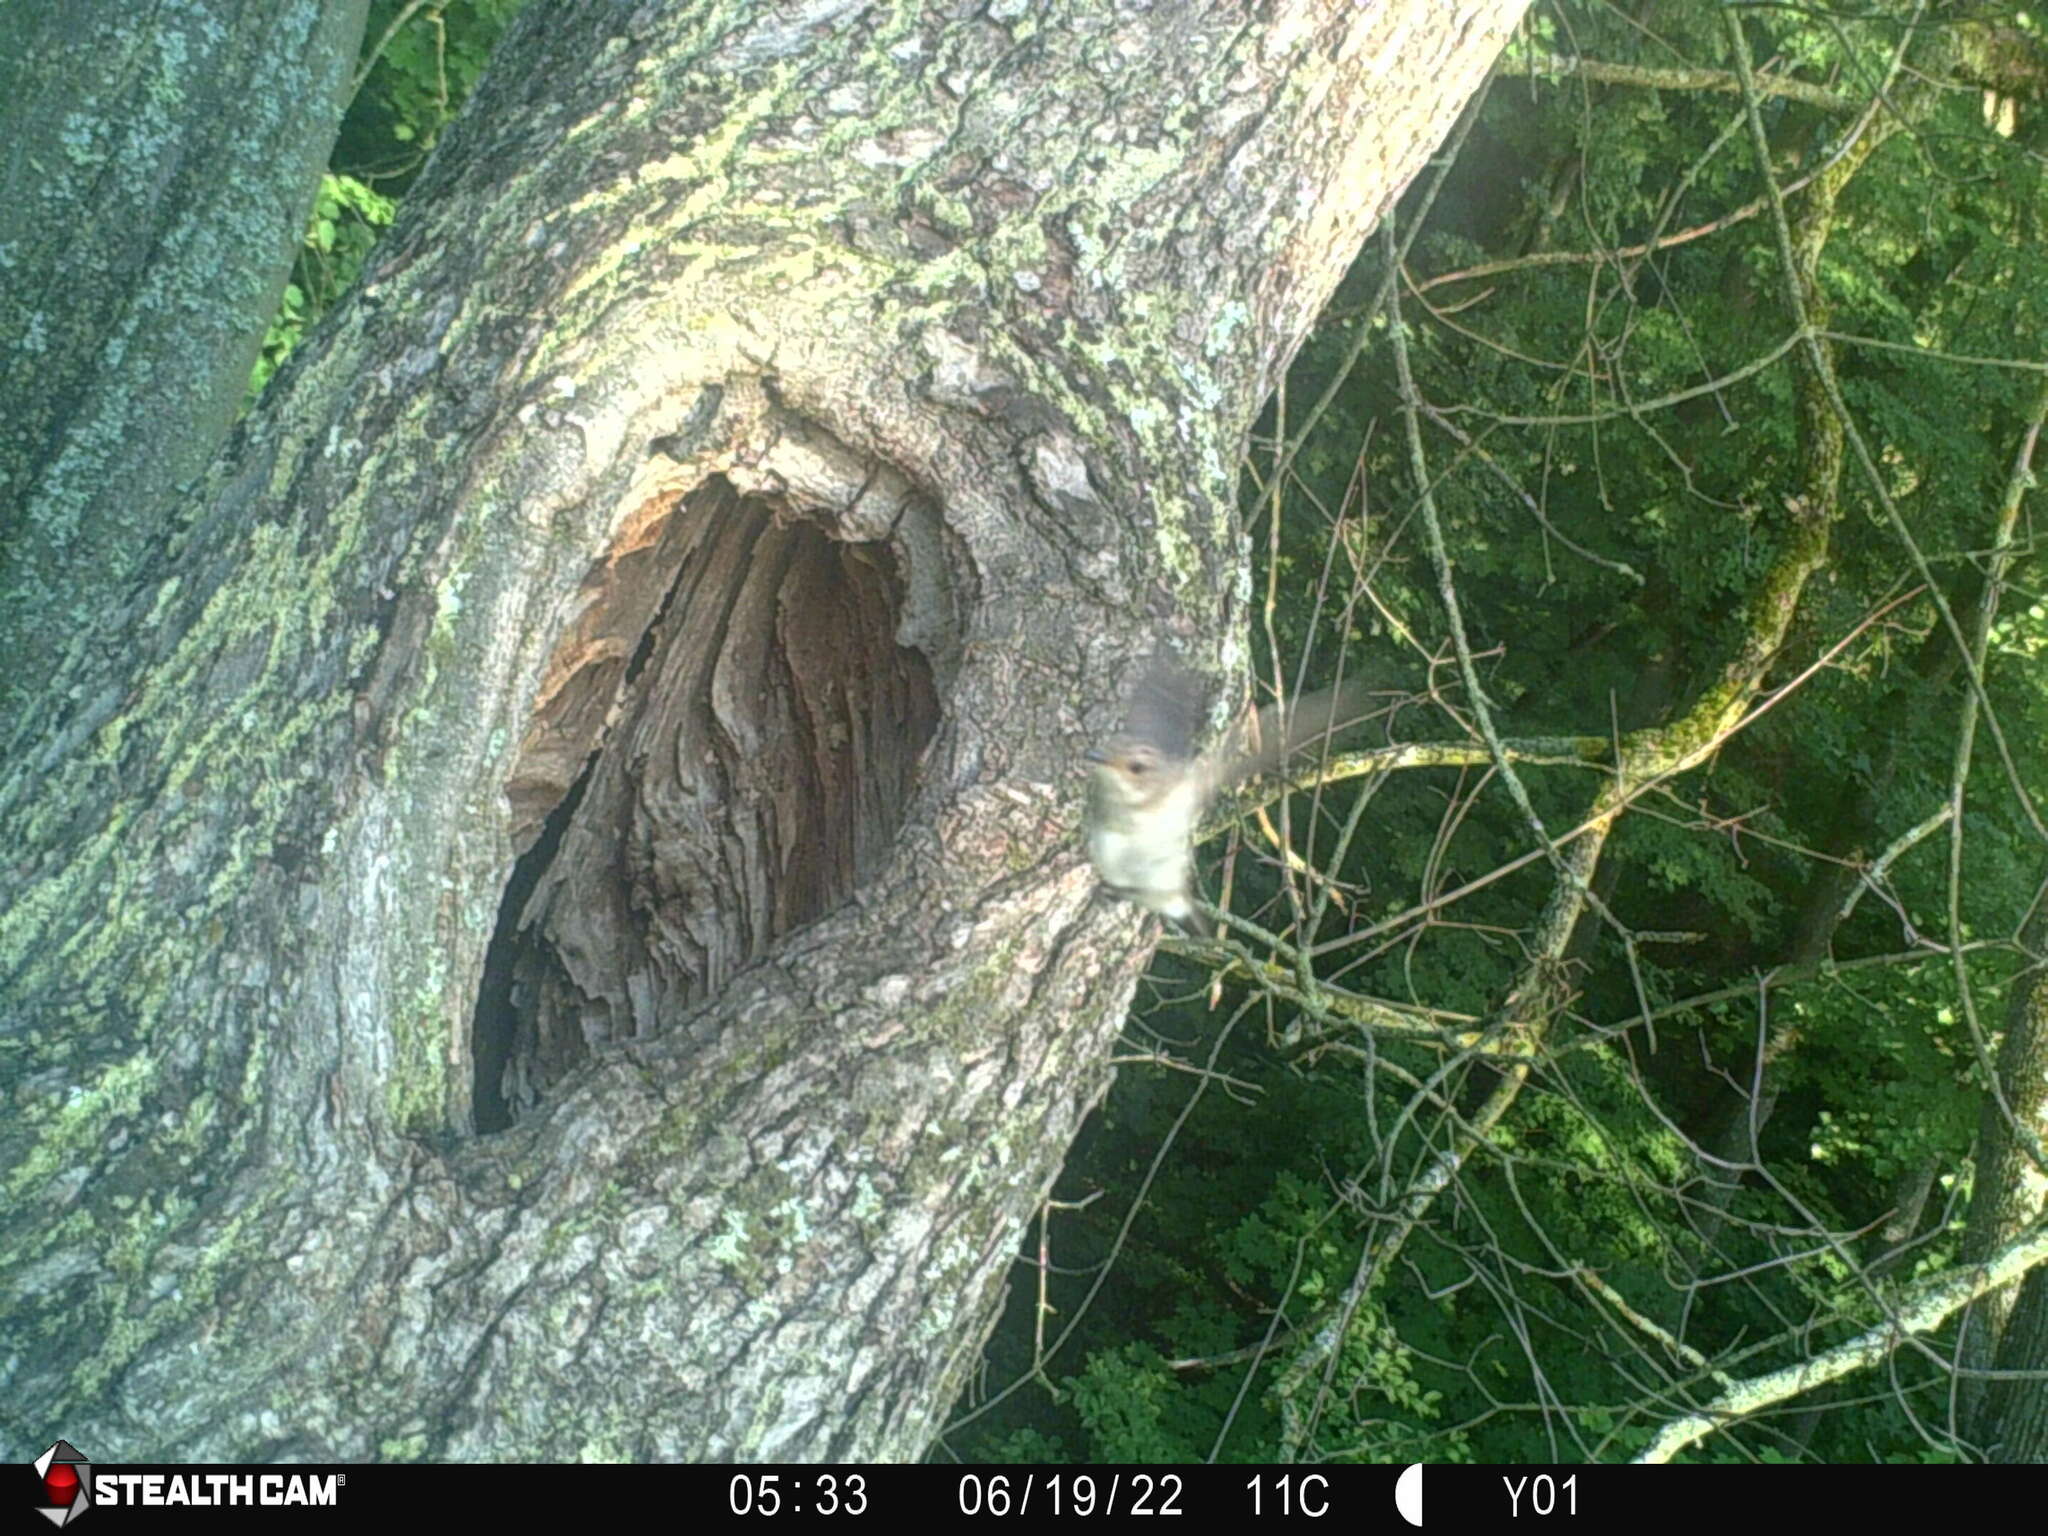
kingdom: Animalia
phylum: Chordata
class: Aves
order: Passeriformes
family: Muscicapidae
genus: Muscicapa
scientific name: Muscicapa striata
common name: Spotted flycatcher
